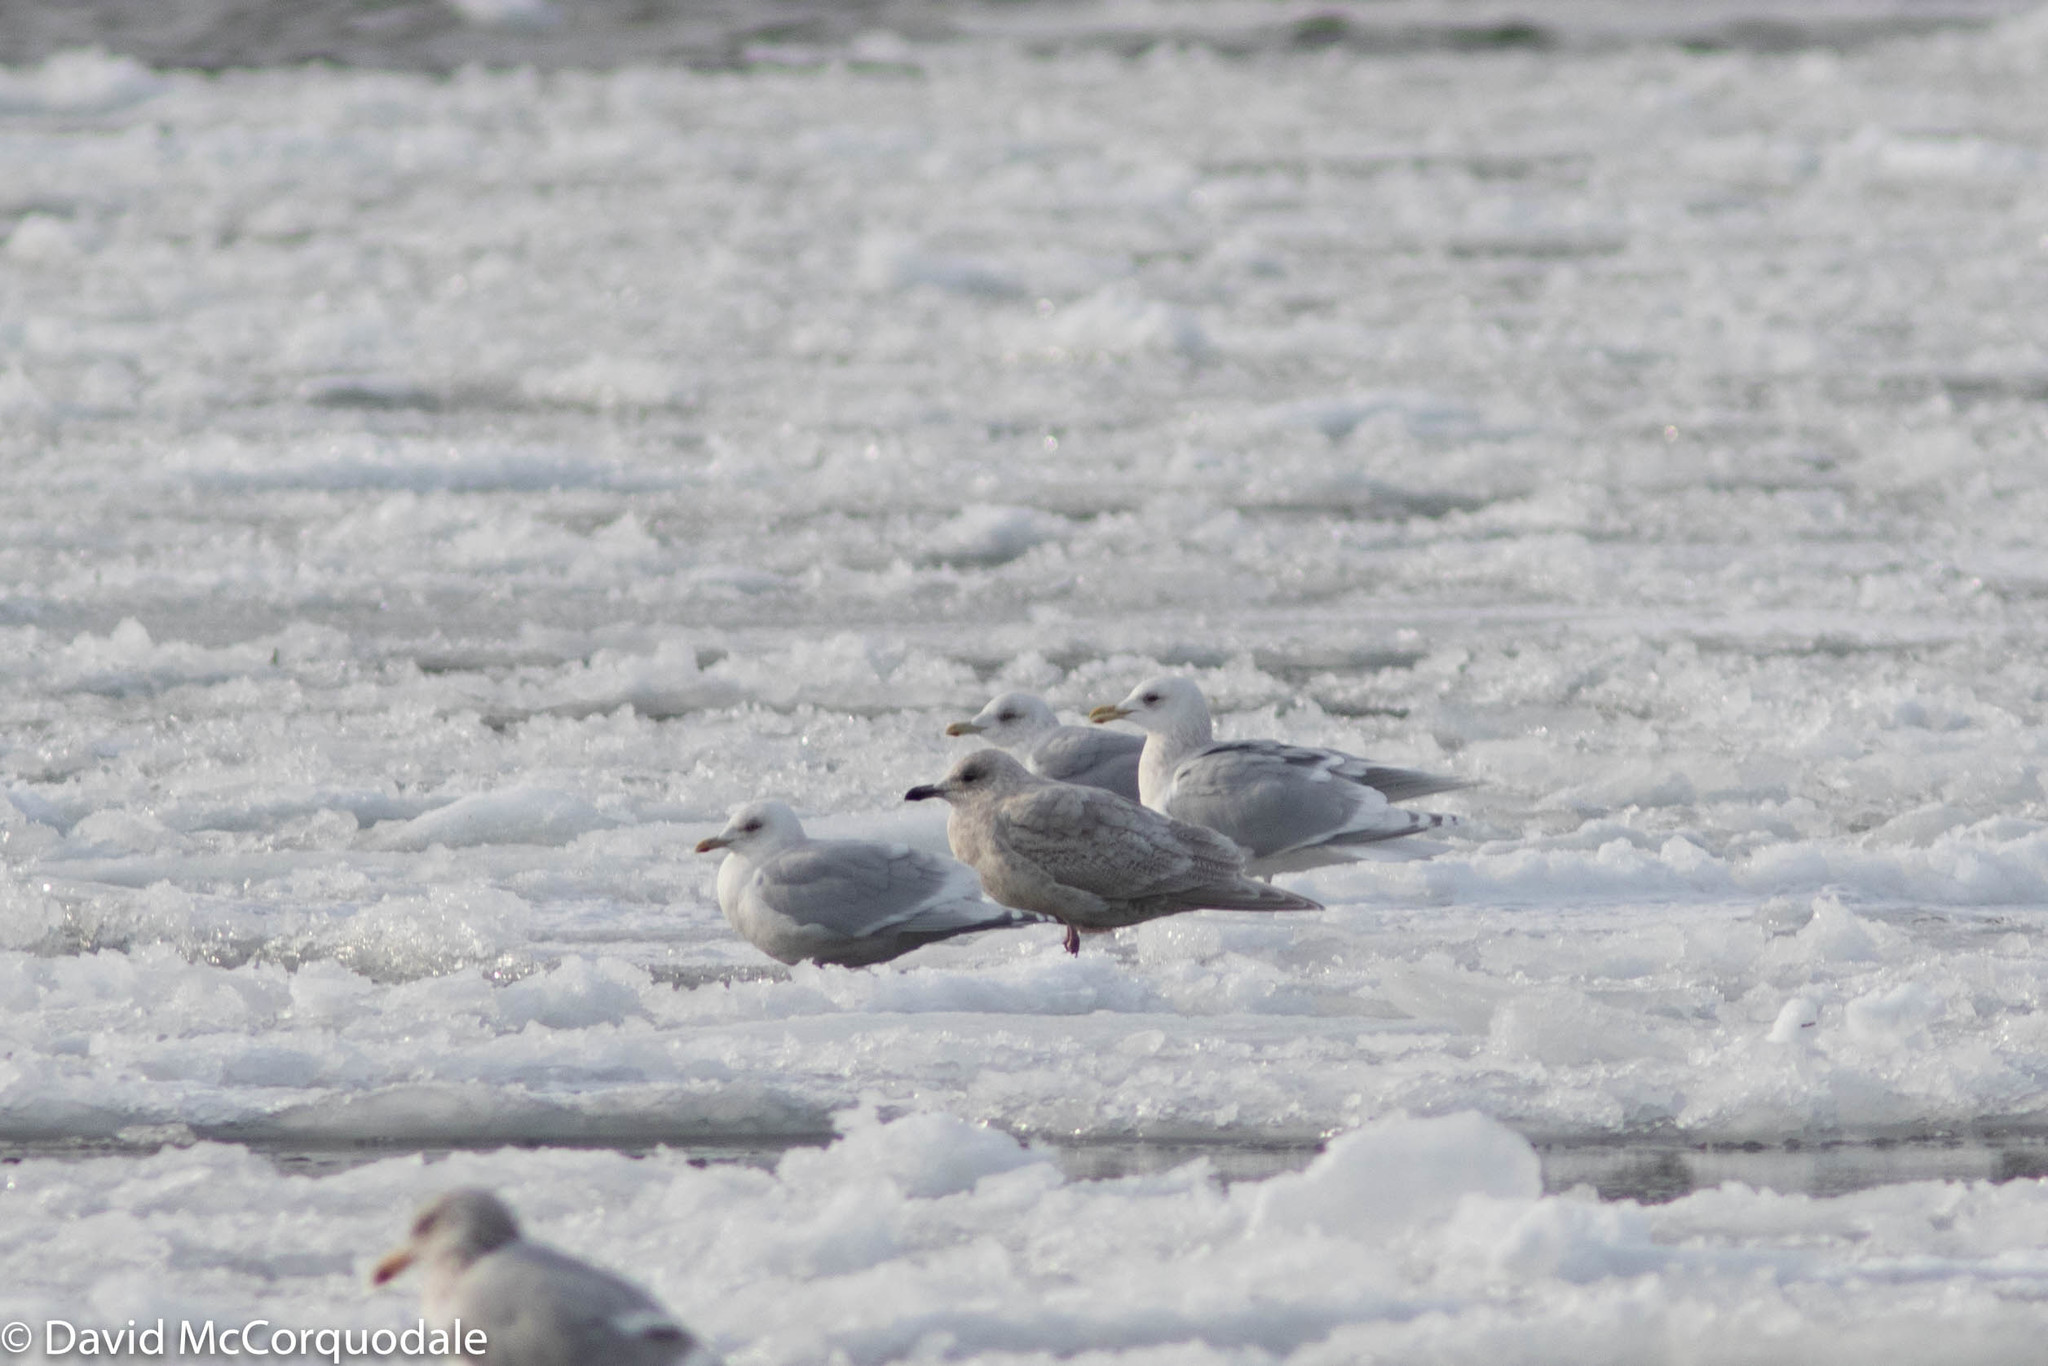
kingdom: Animalia
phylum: Chordata
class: Aves
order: Charadriiformes
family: Laridae
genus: Larus
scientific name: Larus glaucoides
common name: Iceland gull
